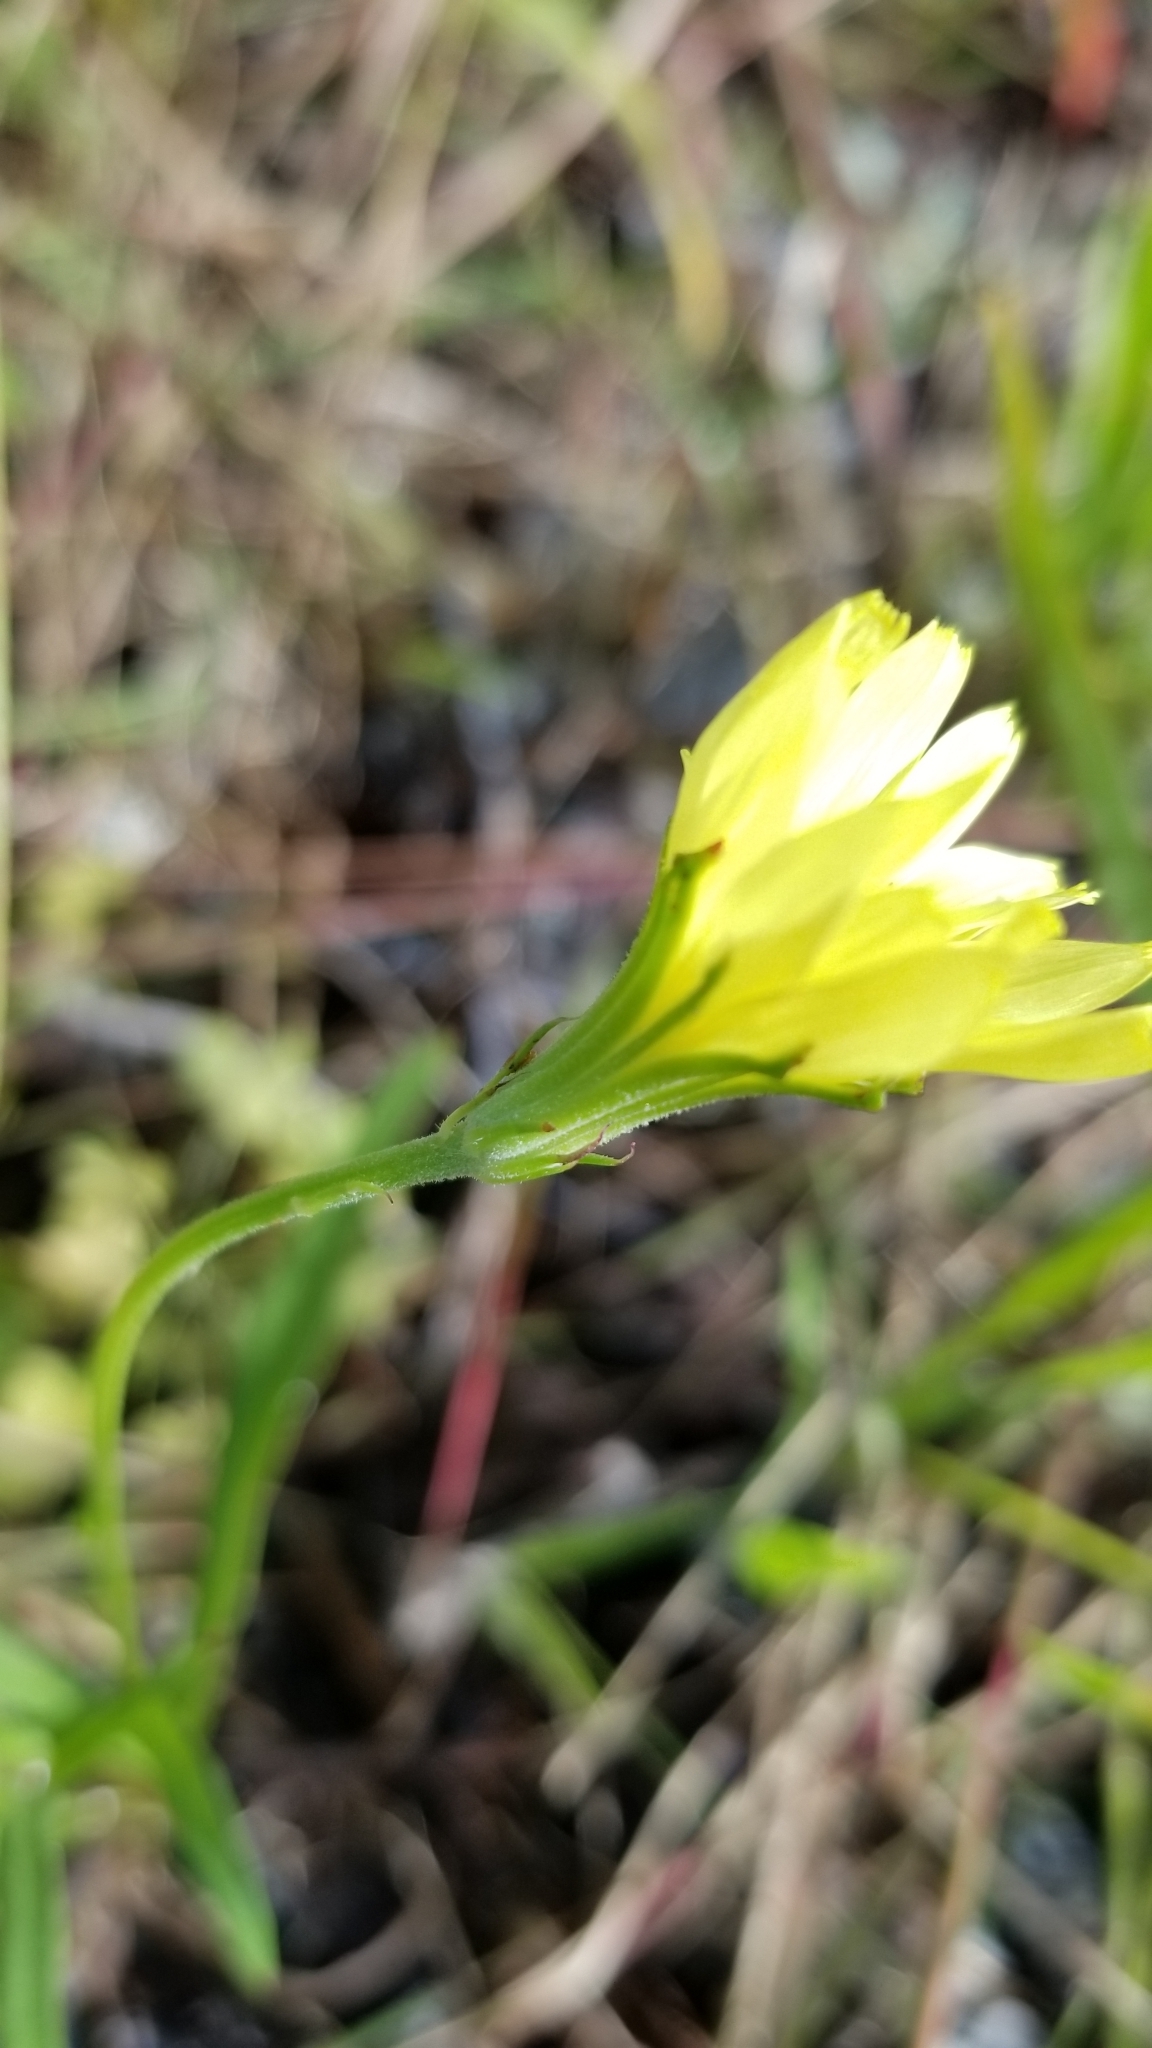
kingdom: Plantae
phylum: Tracheophyta
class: Magnoliopsida
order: Asterales
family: Asteraceae
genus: Pyrrhopappus
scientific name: Pyrrhopappus carolinianus
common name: Carolina desert-chicory
